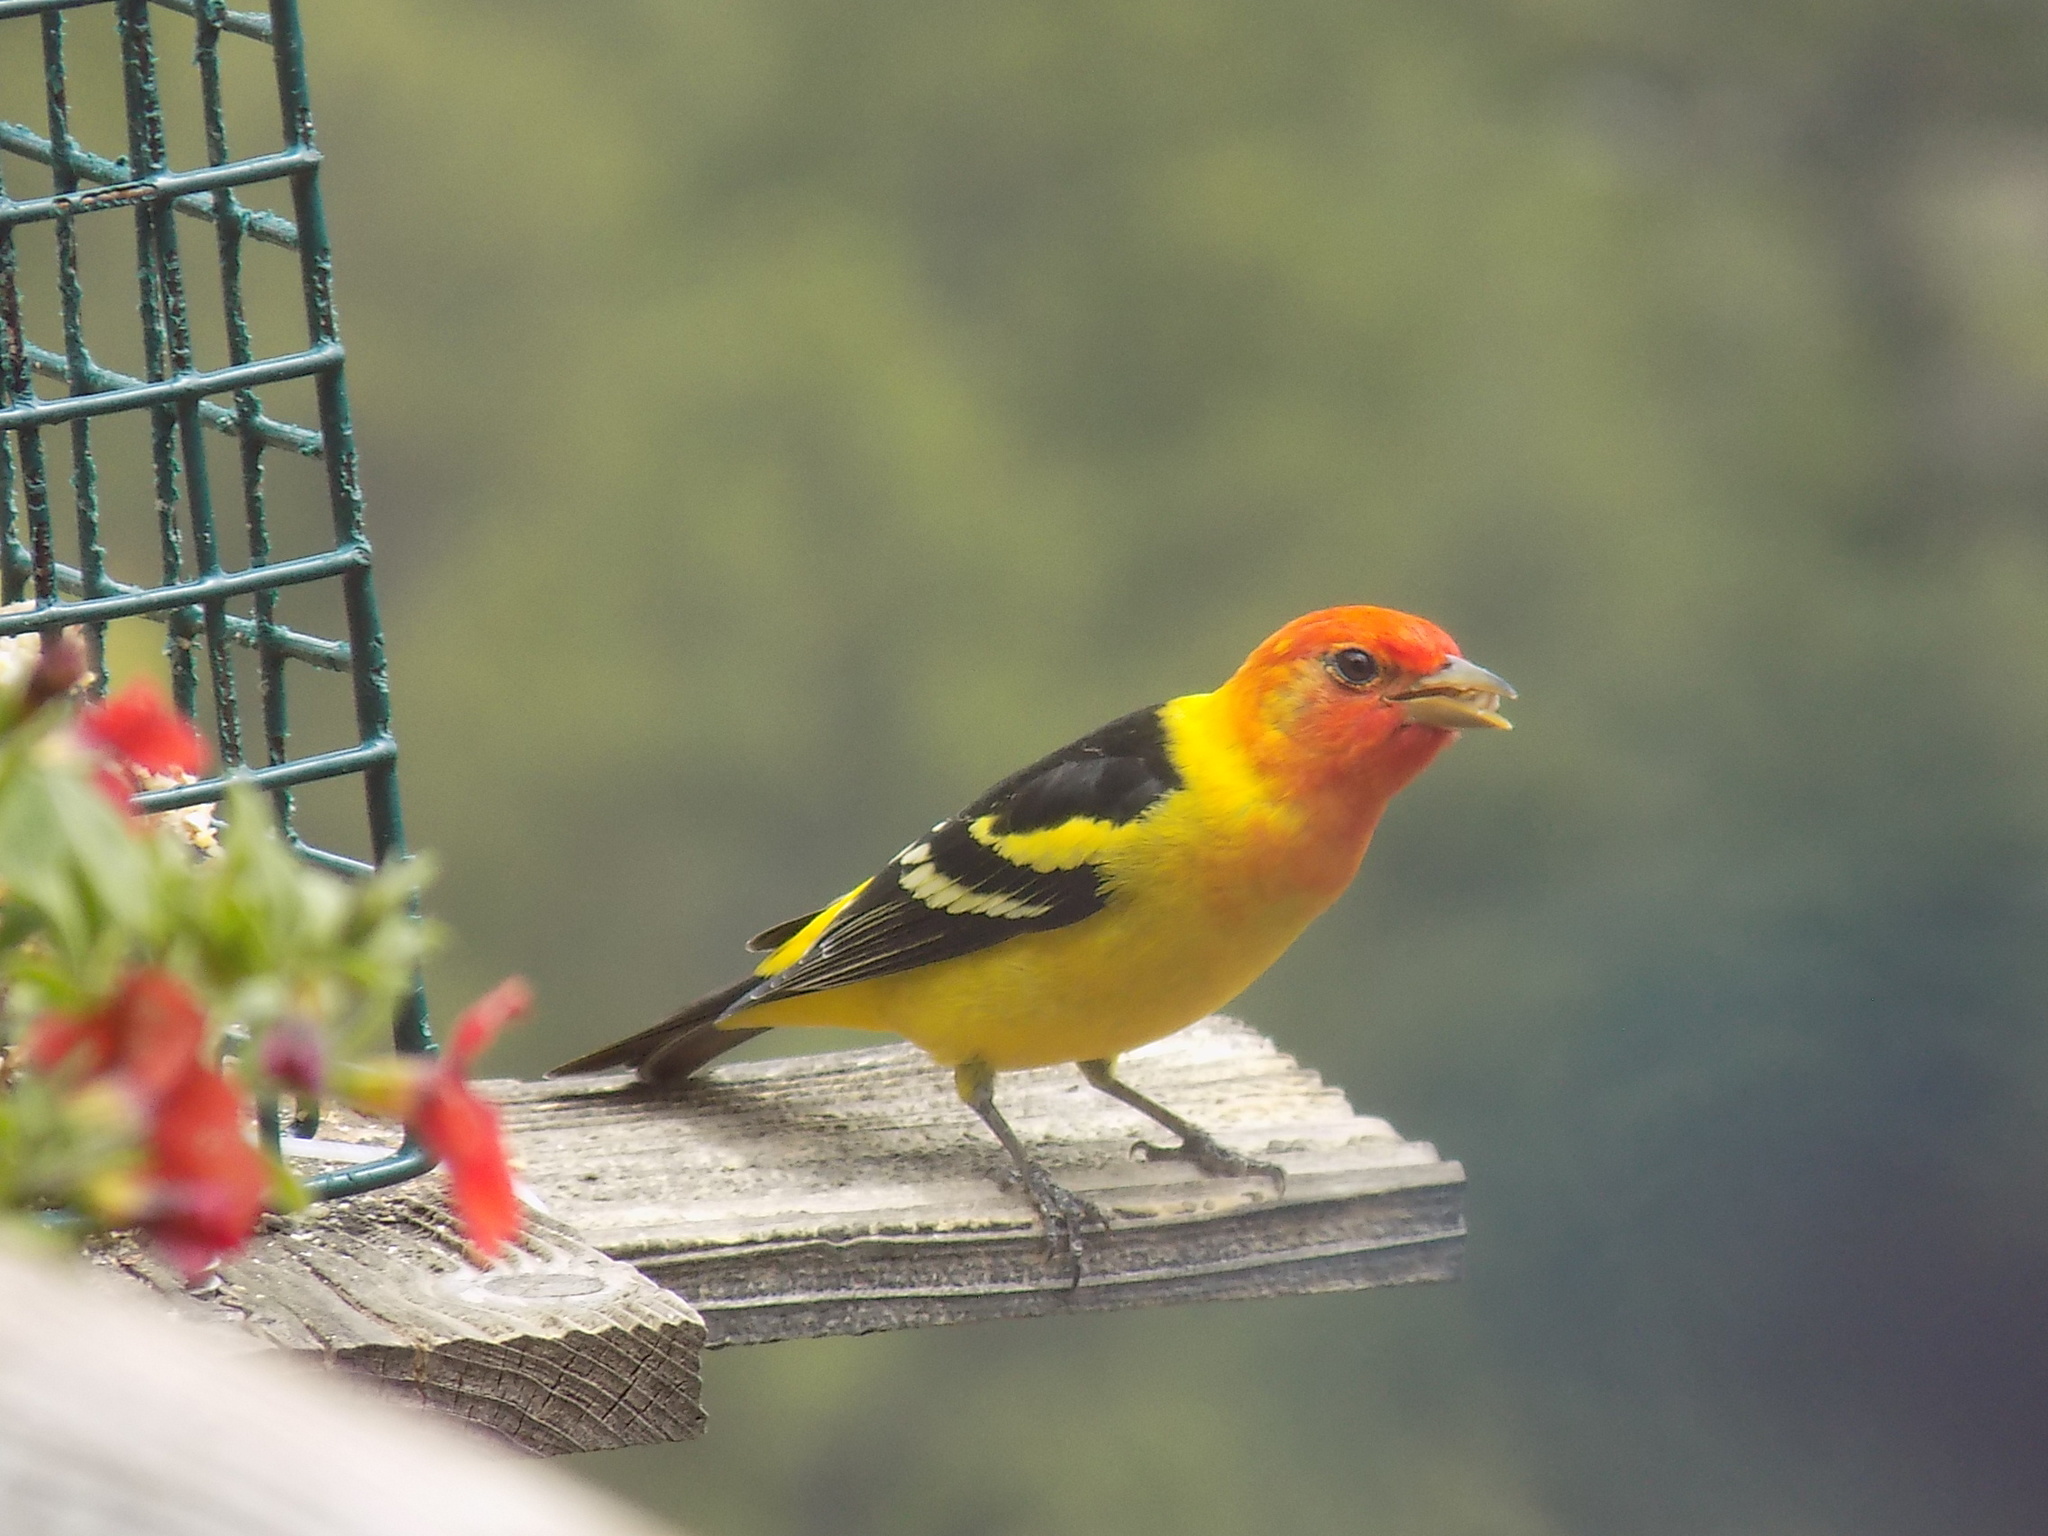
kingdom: Animalia
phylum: Chordata
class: Aves
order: Passeriformes
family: Cardinalidae
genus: Piranga
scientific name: Piranga ludoviciana
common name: Western tanager
